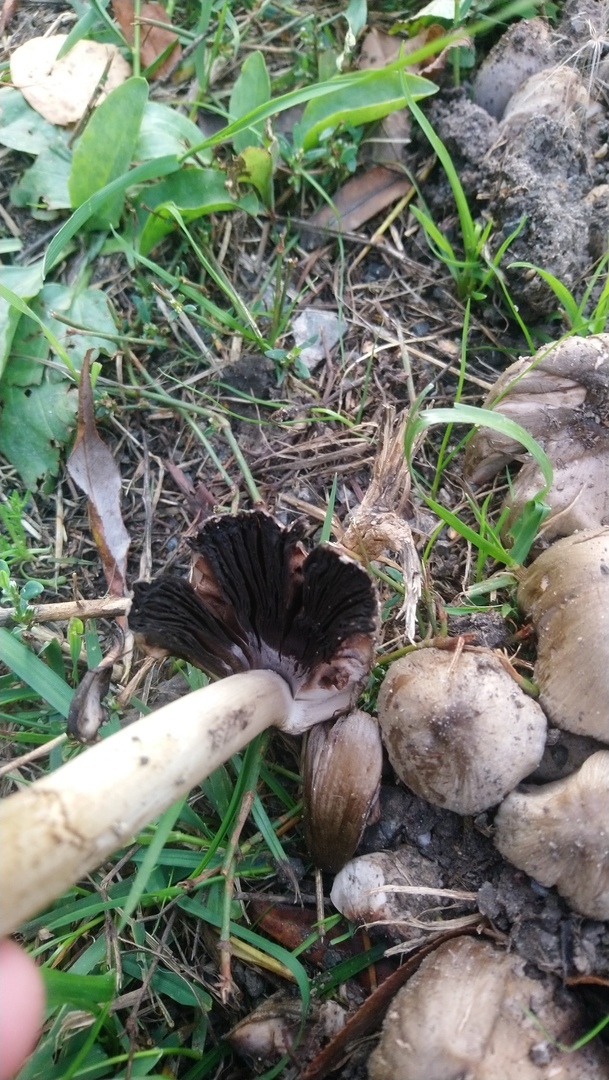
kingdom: Fungi
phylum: Basidiomycota
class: Agaricomycetes
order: Agaricales
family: Psathyrellaceae
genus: Coprinopsis
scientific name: Coprinopsis atramentaria
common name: Common ink-cap
